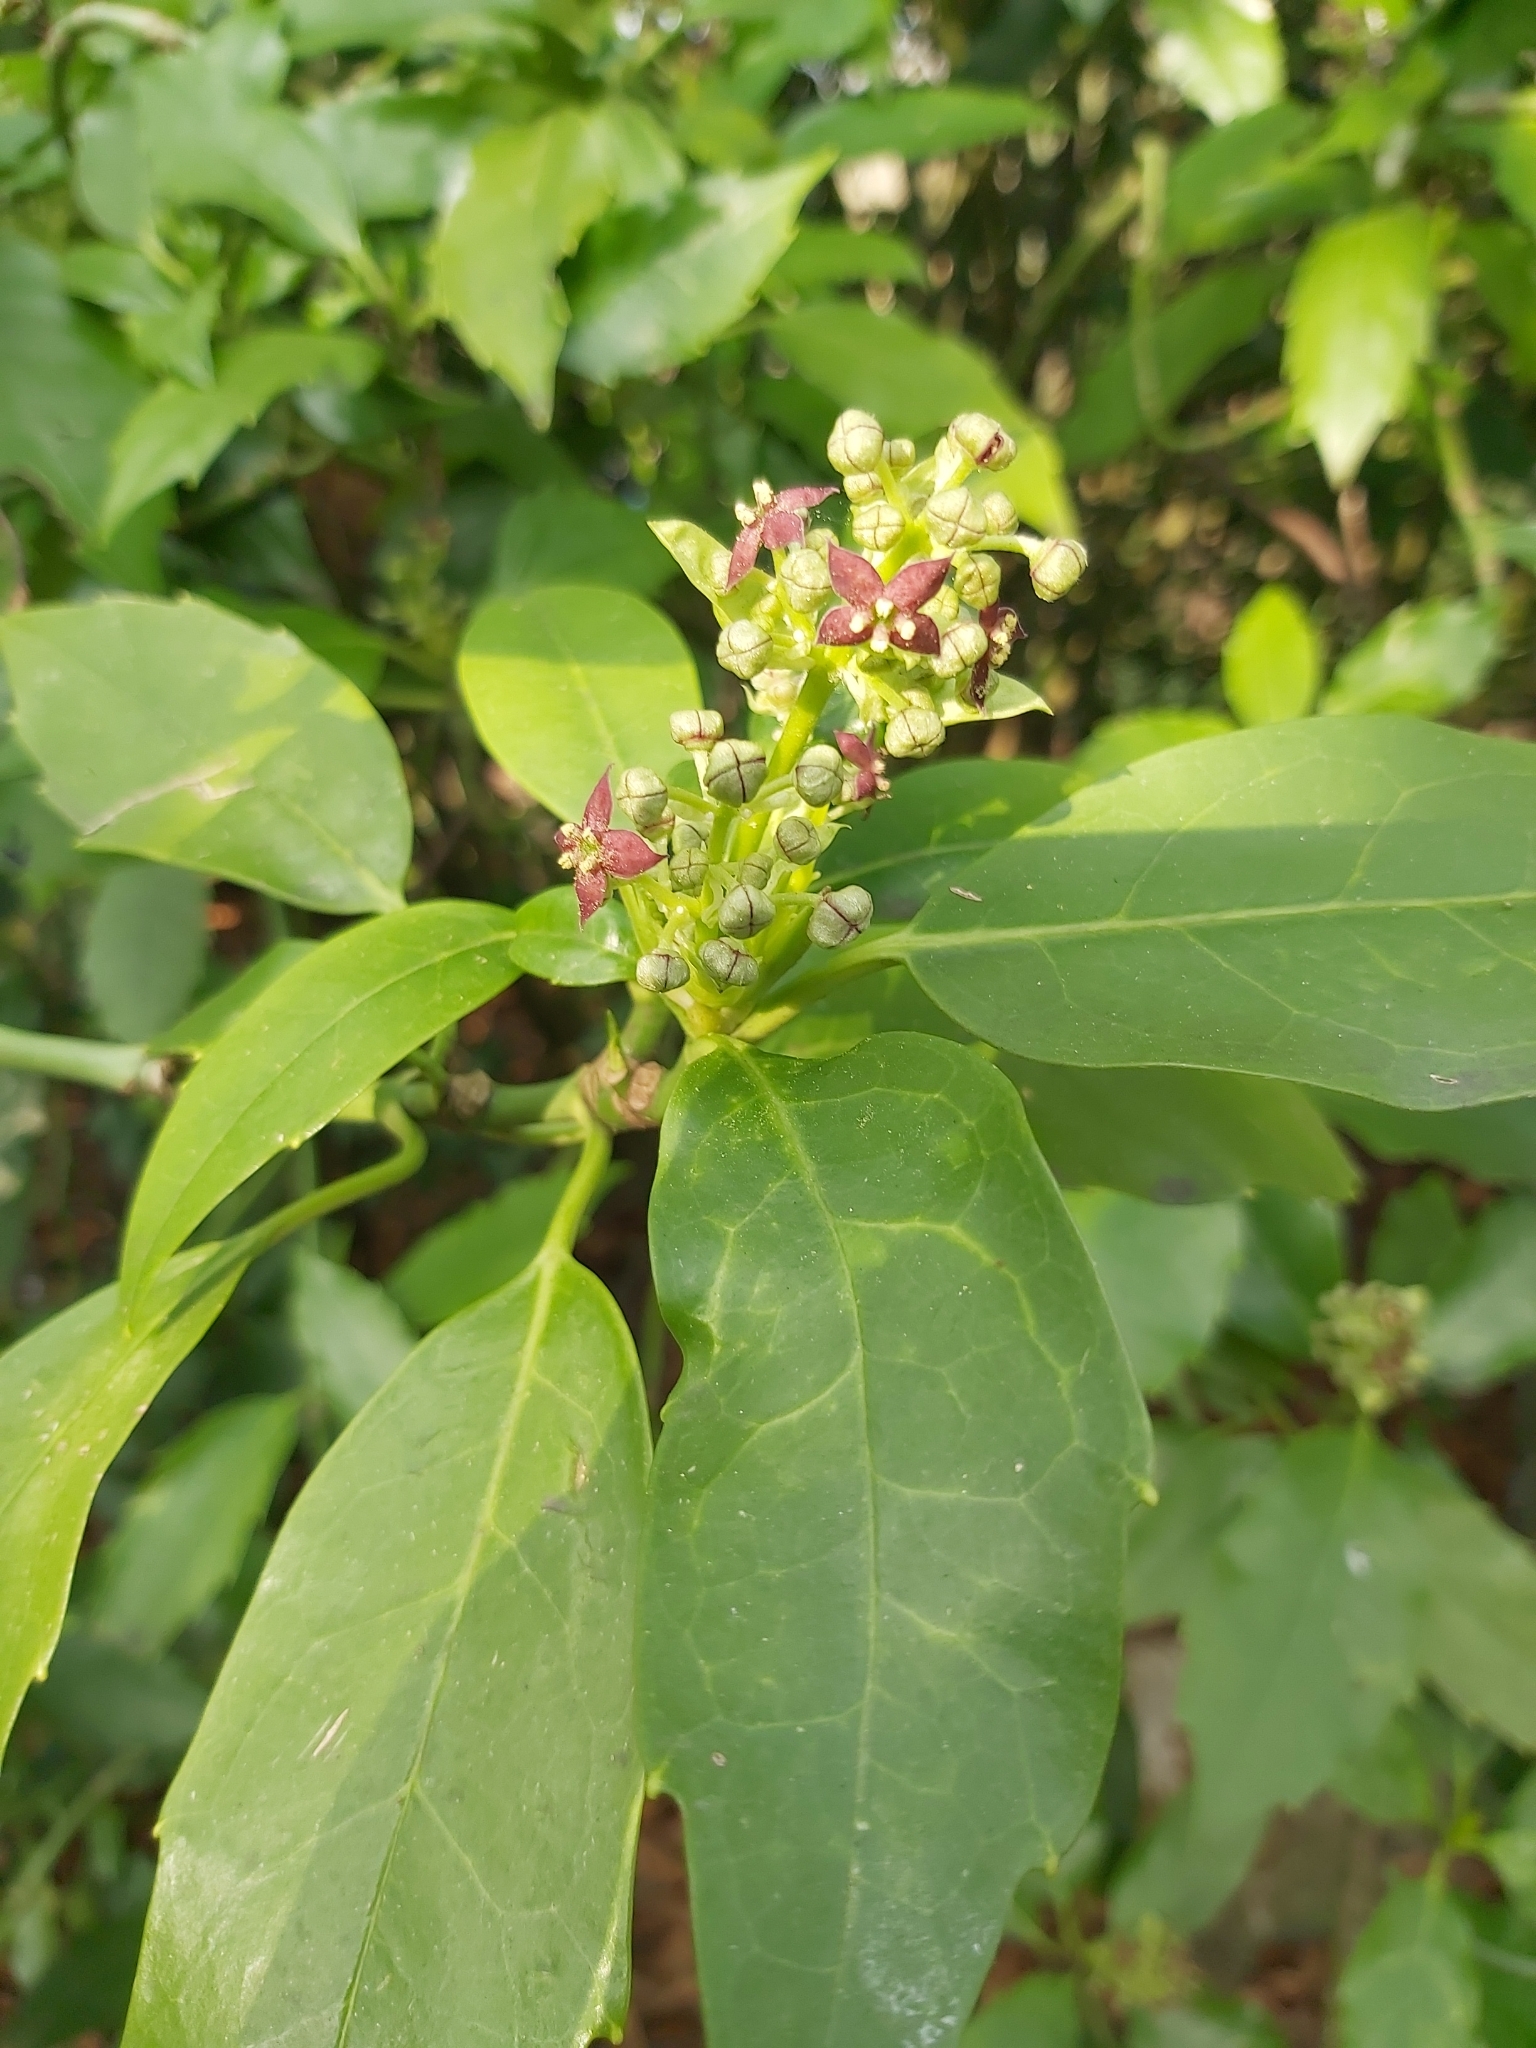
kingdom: Plantae
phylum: Tracheophyta
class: Magnoliopsida
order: Garryales
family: Garryaceae
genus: Aucuba
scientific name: Aucuba japonica
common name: Spotted-laurel
